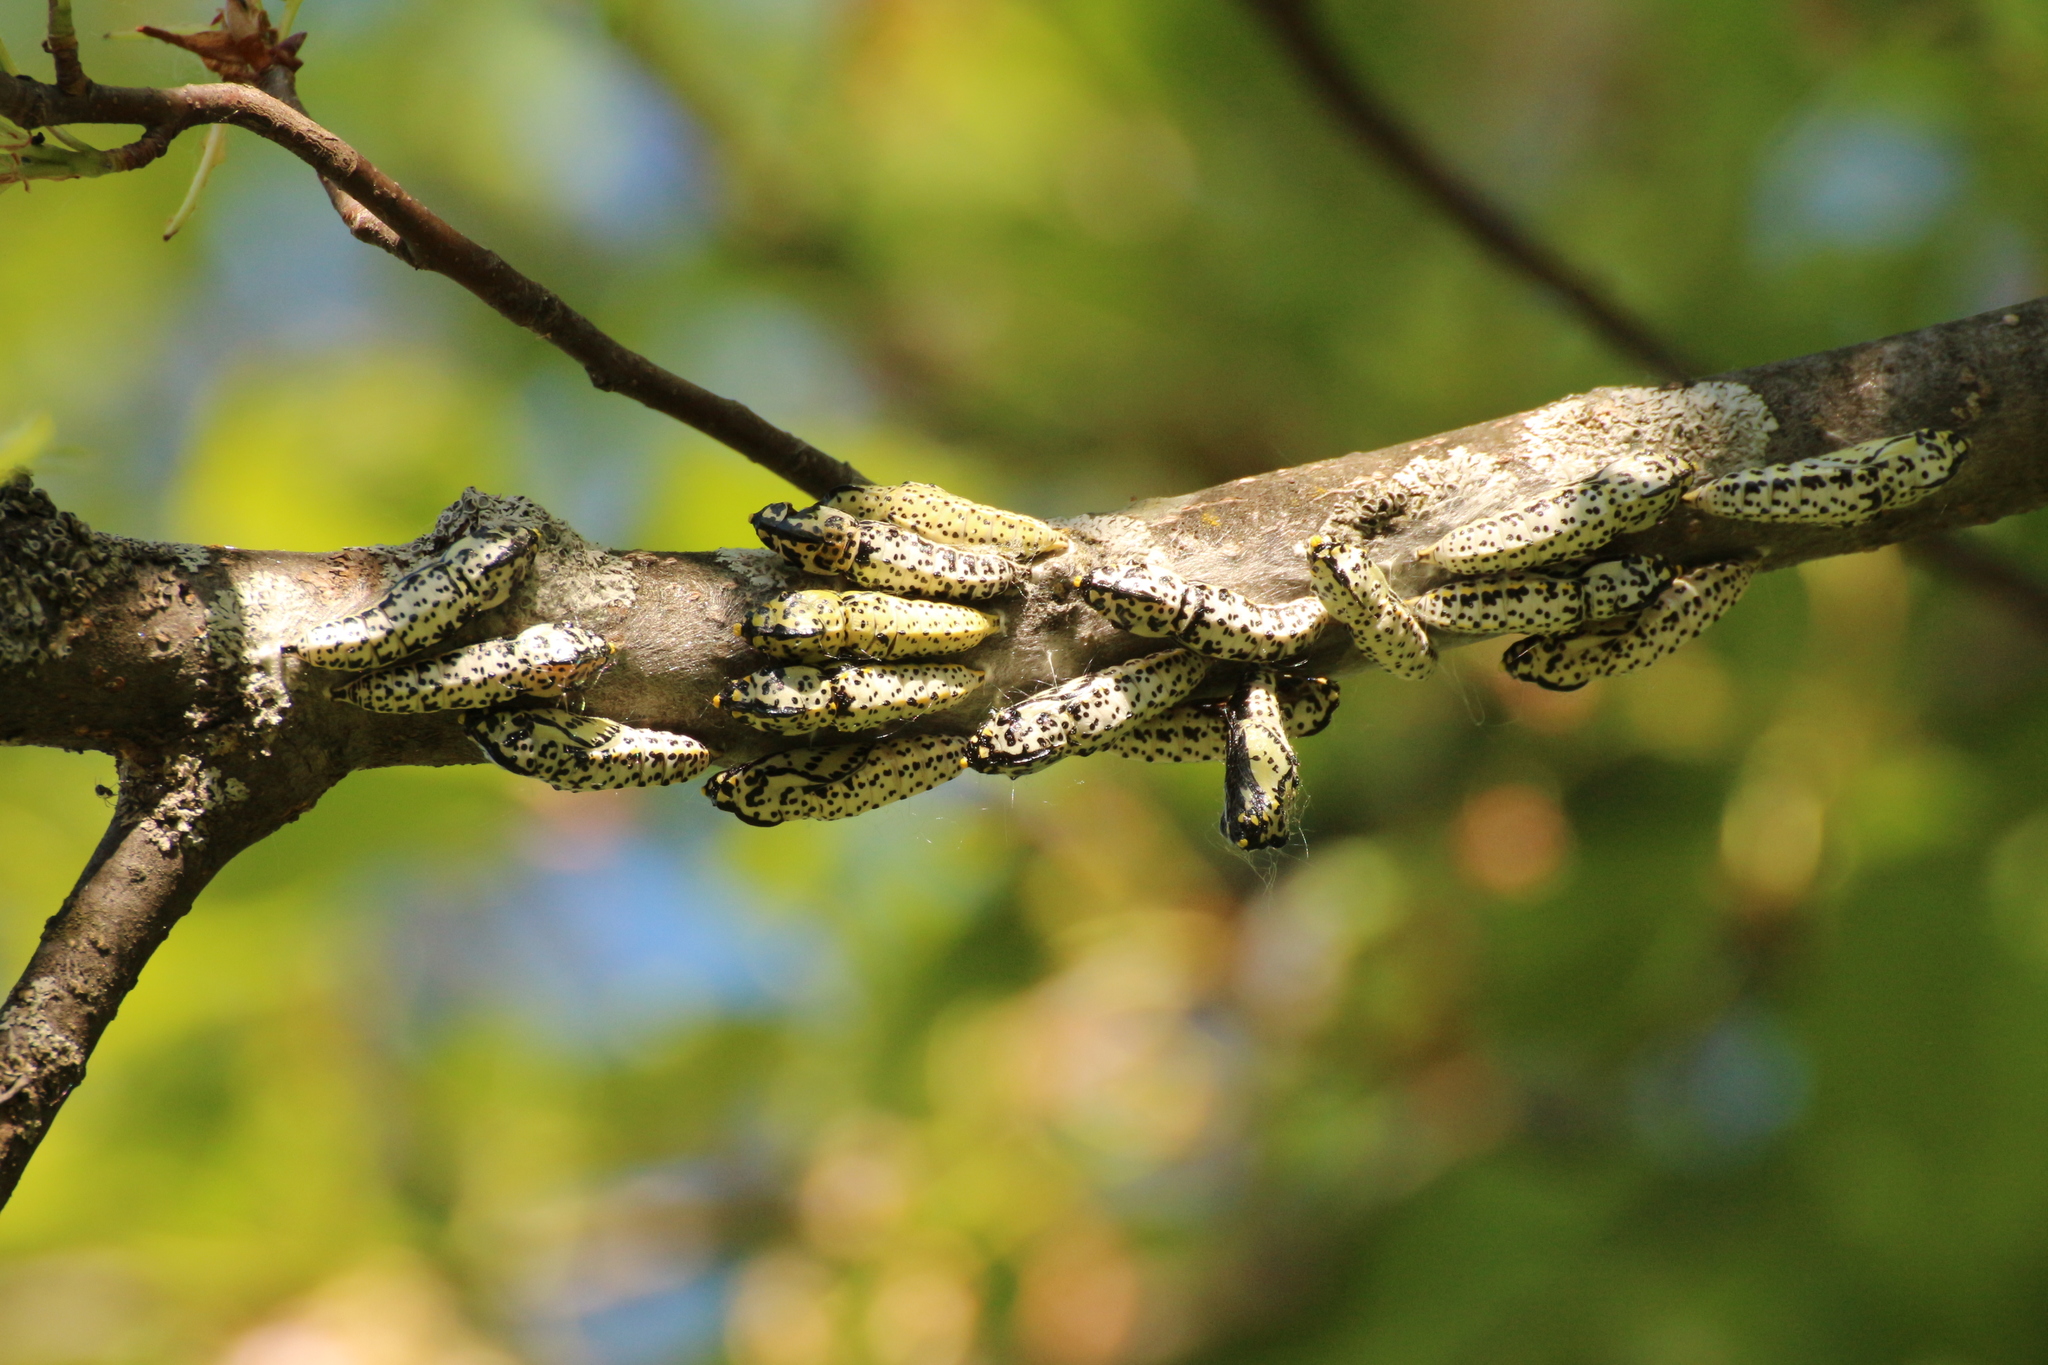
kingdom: Animalia
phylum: Arthropoda
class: Insecta
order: Lepidoptera
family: Pieridae
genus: Aporia
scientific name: Aporia crataegi
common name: Black-veined white
